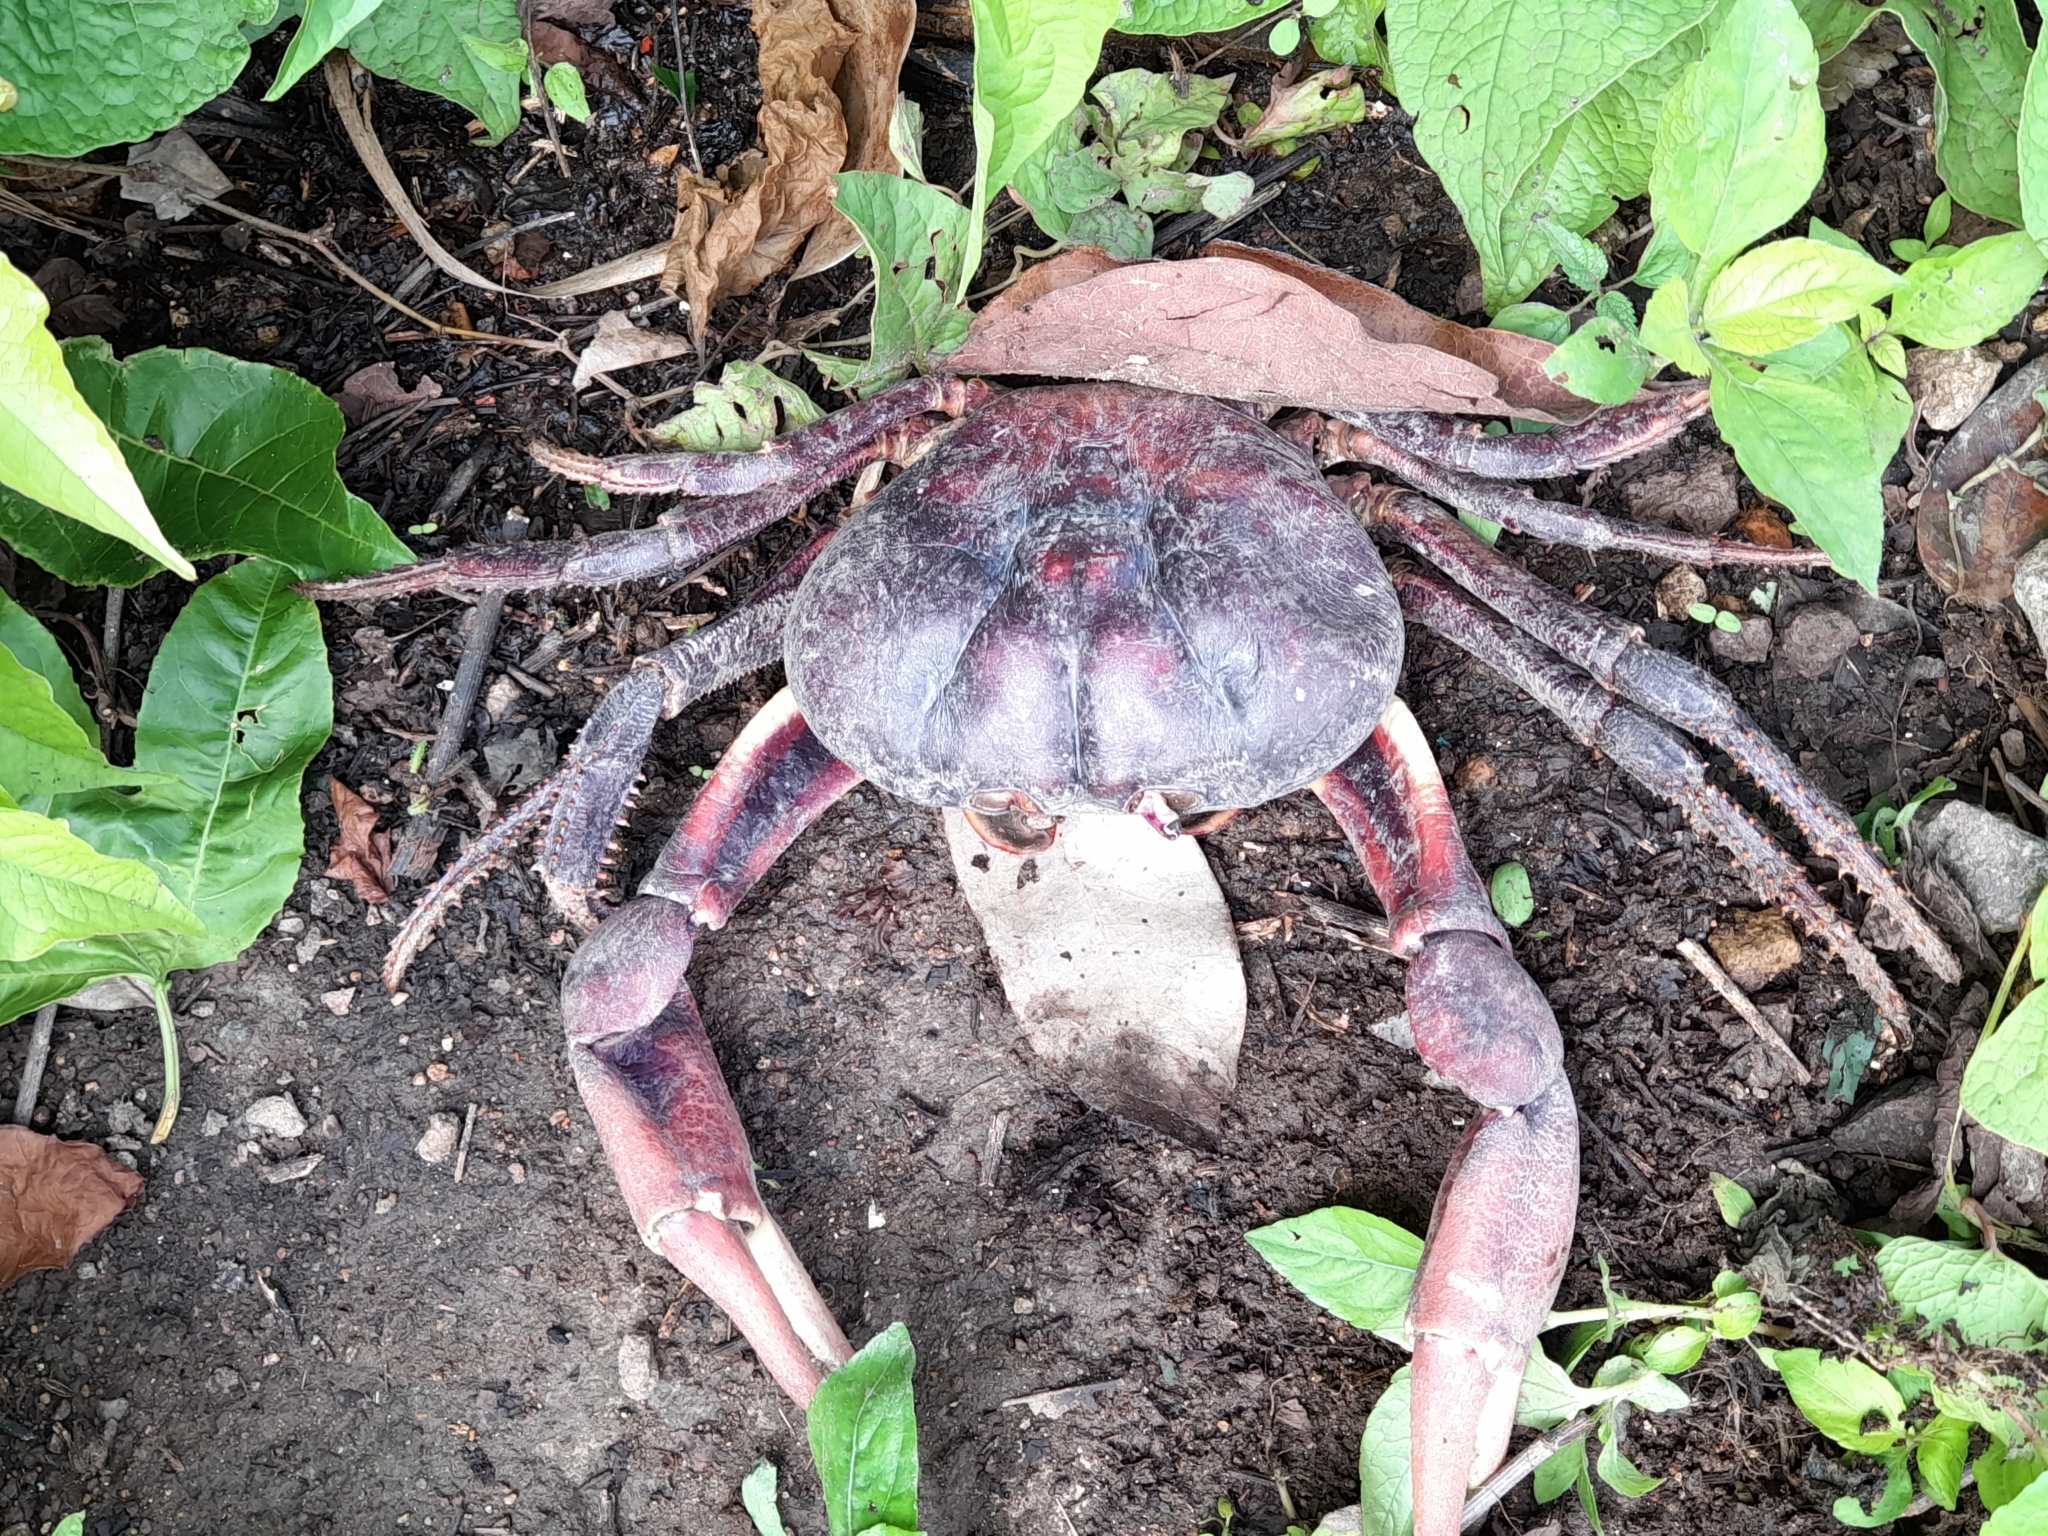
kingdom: Animalia
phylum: Arthropoda
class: Malacostraca
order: Decapoda
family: Gecarcinidae
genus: Gecarcinus
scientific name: Gecarcinus ruricola
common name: Black land crab
